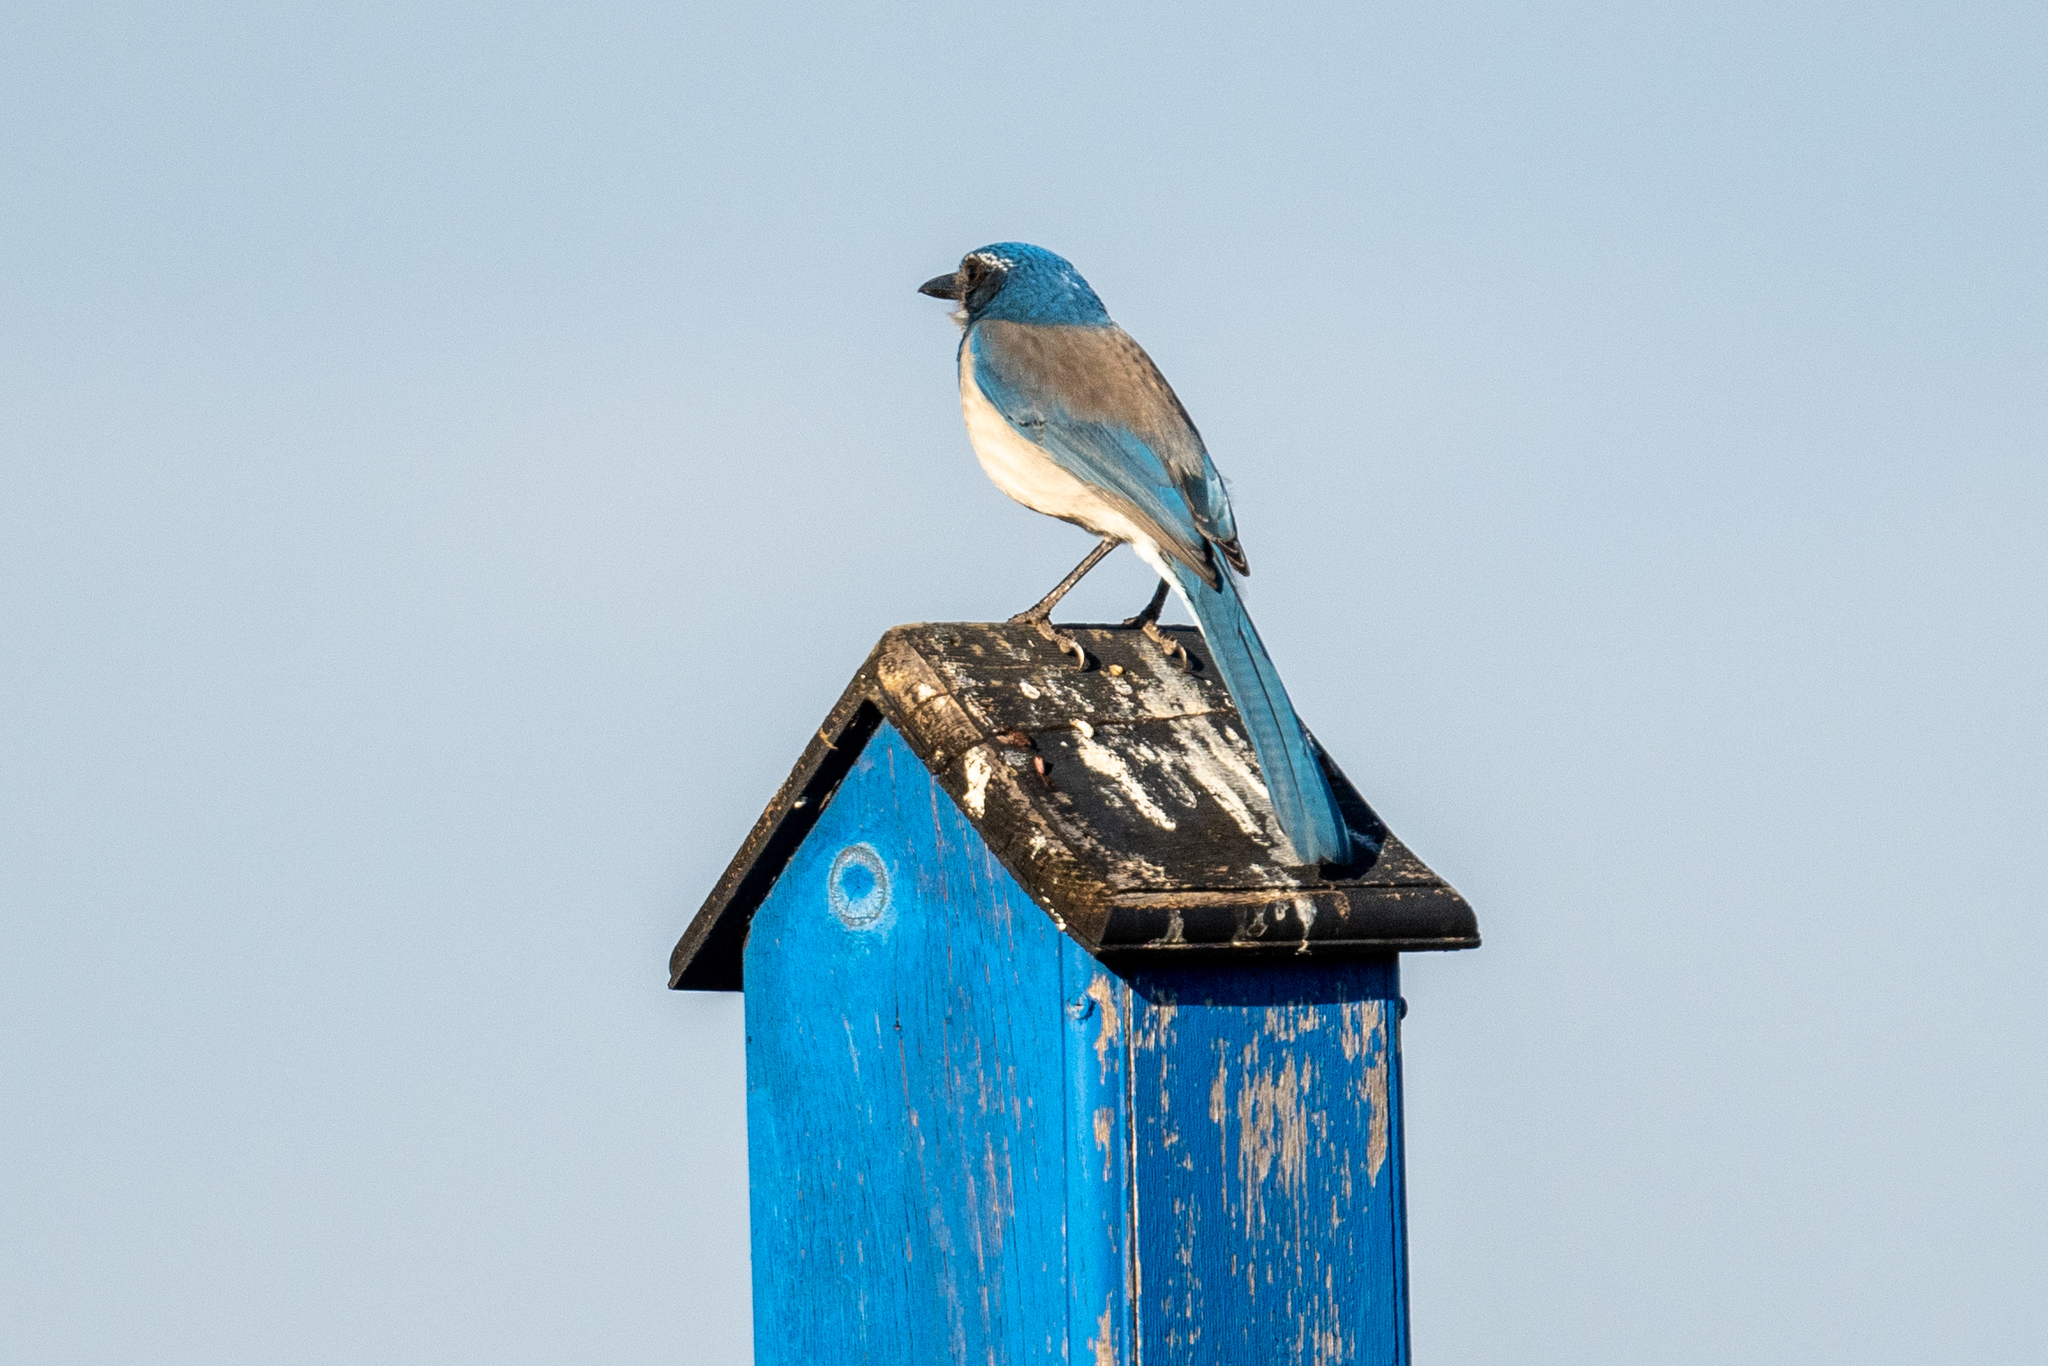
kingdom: Animalia
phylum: Chordata
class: Aves
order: Passeriformes
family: Corvidae
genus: Aphelocoma
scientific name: Aphelocoma californica
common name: California scrub-jay
